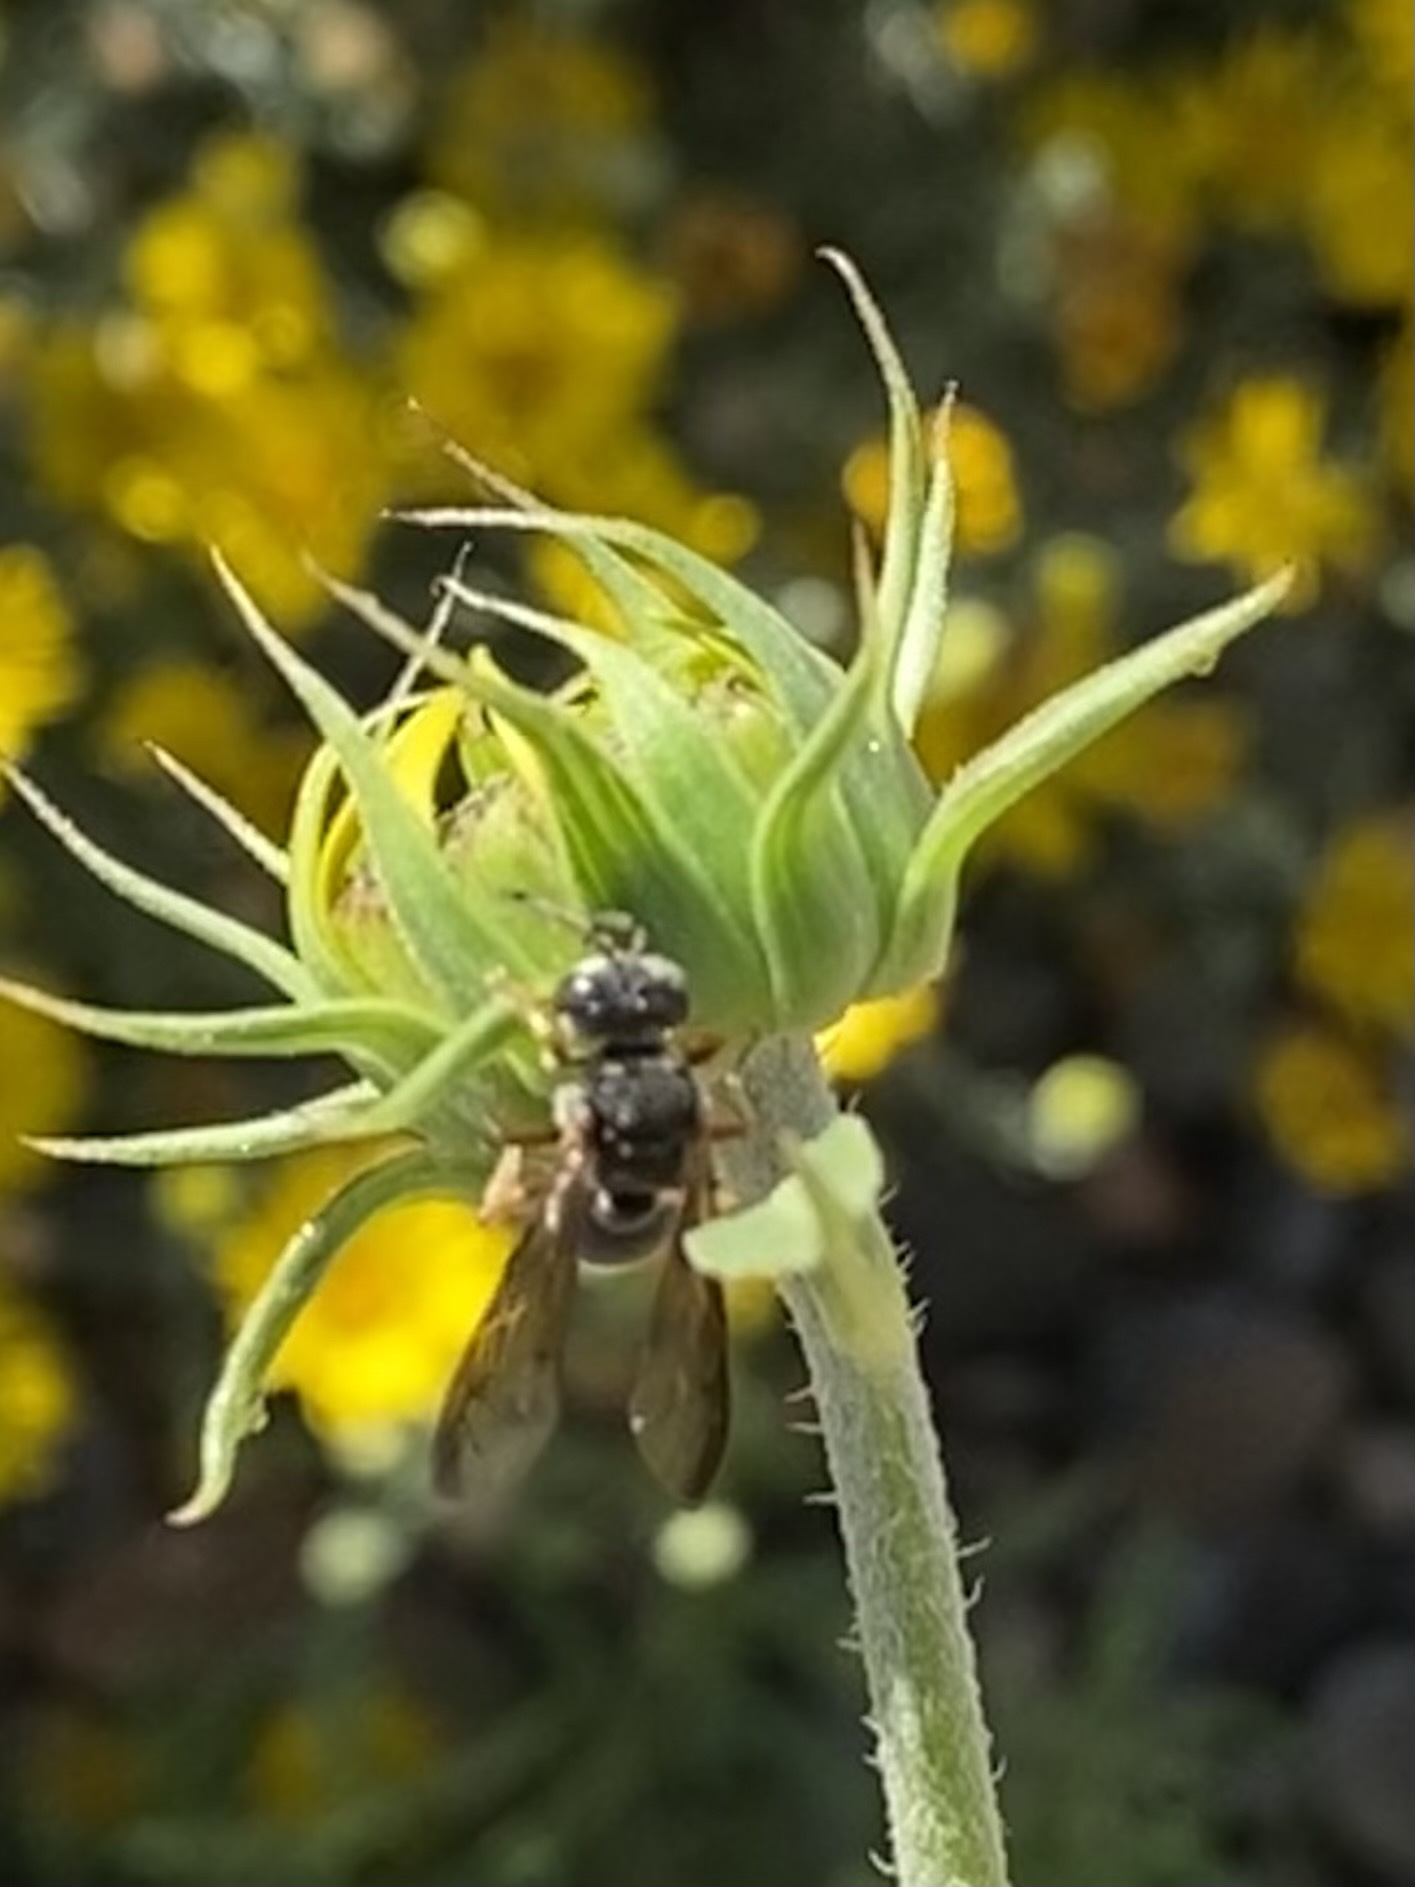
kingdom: Animalia
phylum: Arthropoda
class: Insecta
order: Hymenoptera
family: Crabronidae
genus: Cerceris
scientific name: Cerceris dilatata
